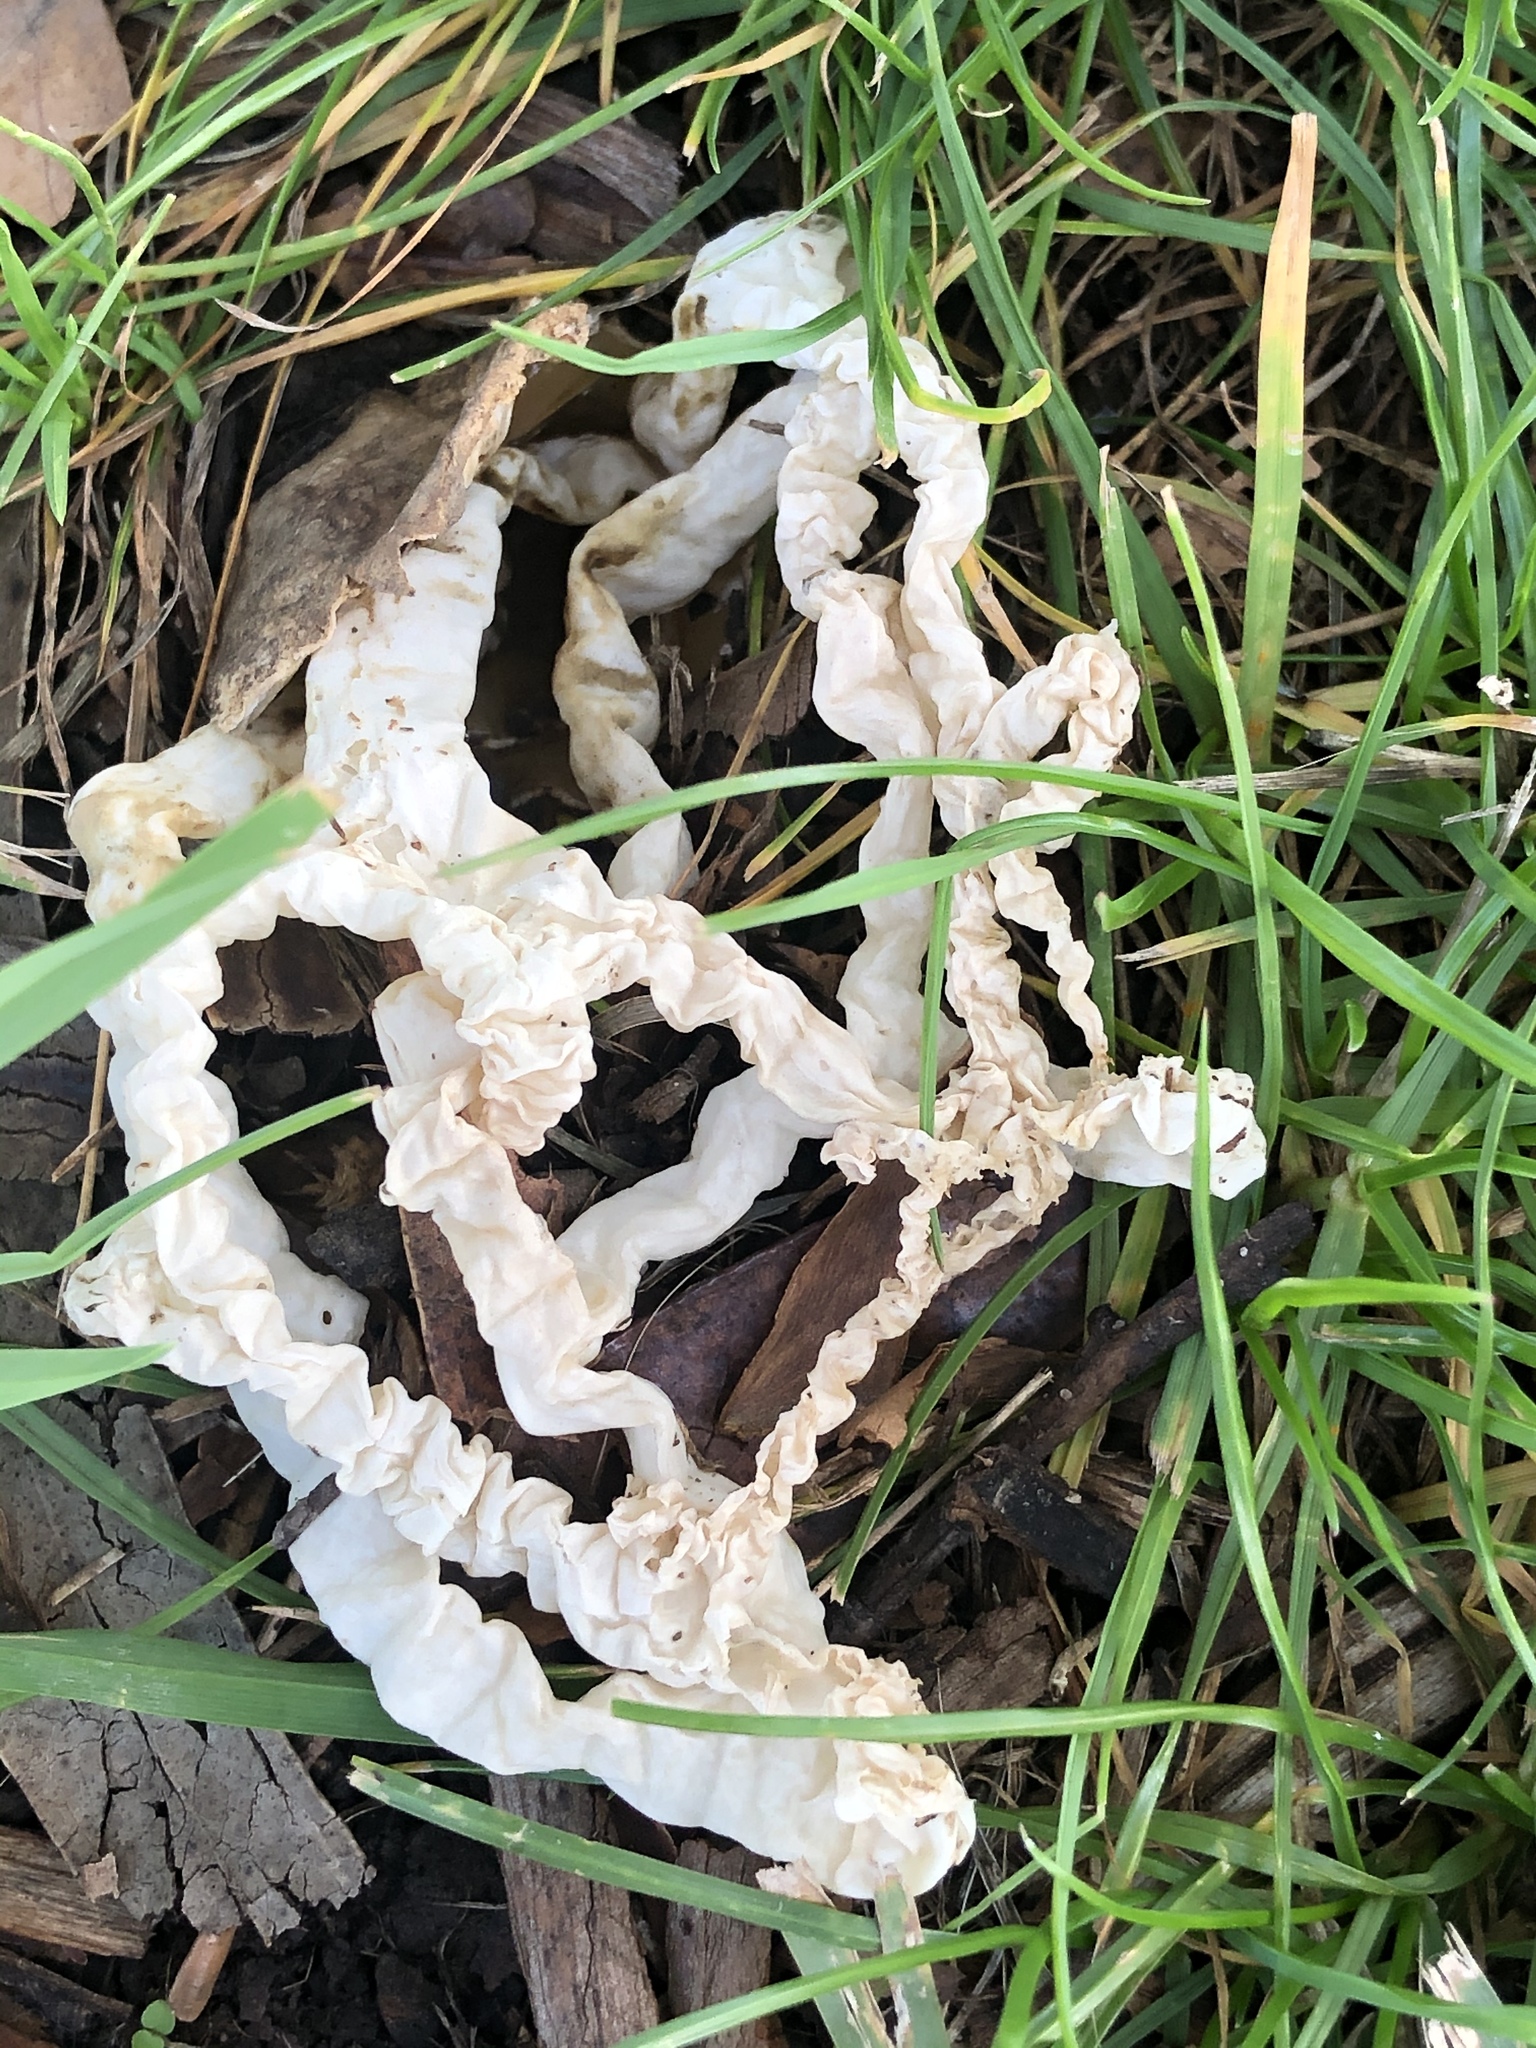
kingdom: Fungi
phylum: Basidiomycota
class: Agaricomycetes
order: Phallales
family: Phallaceae
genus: Ileodictyon
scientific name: Ileodictyon cibarium
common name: Basket fungus
